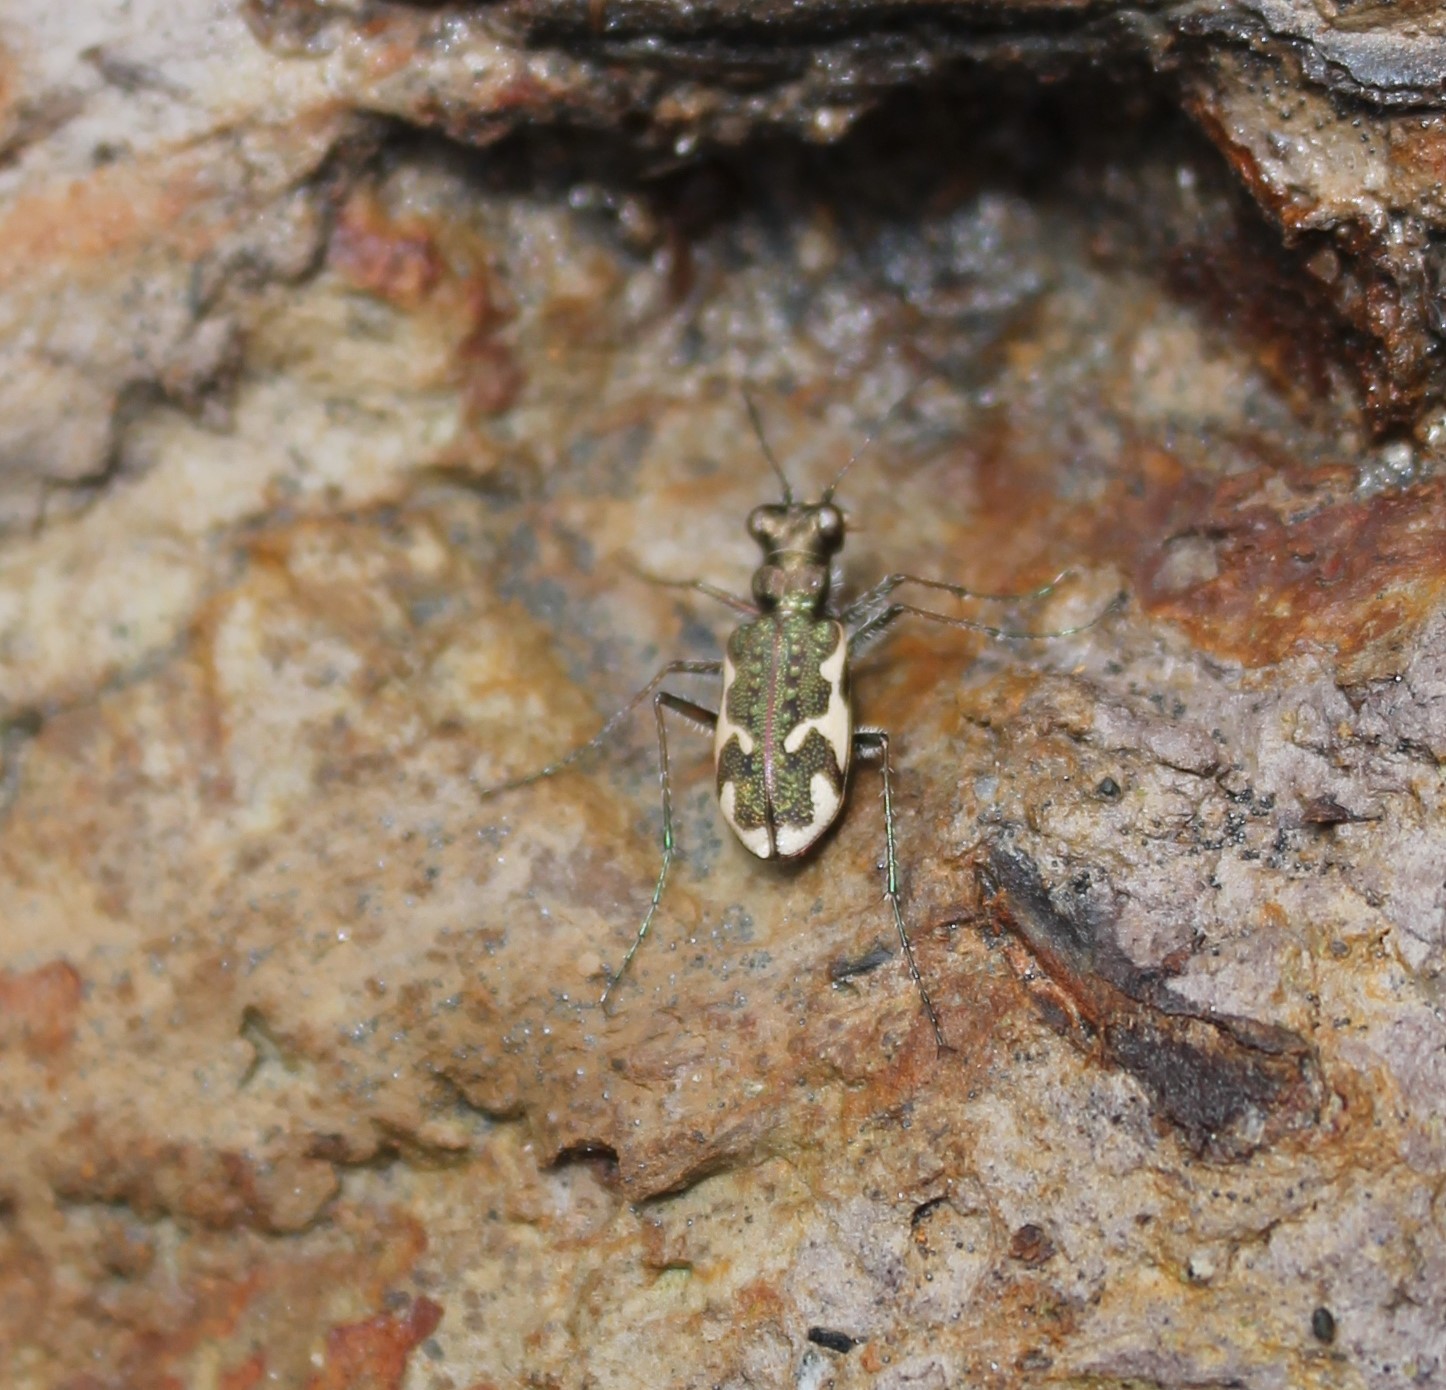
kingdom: Animalia
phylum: Arthropoda
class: Insecta
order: Coleoptera
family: Carabidae
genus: Neocicindela
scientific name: Neocicindela tuberculata
